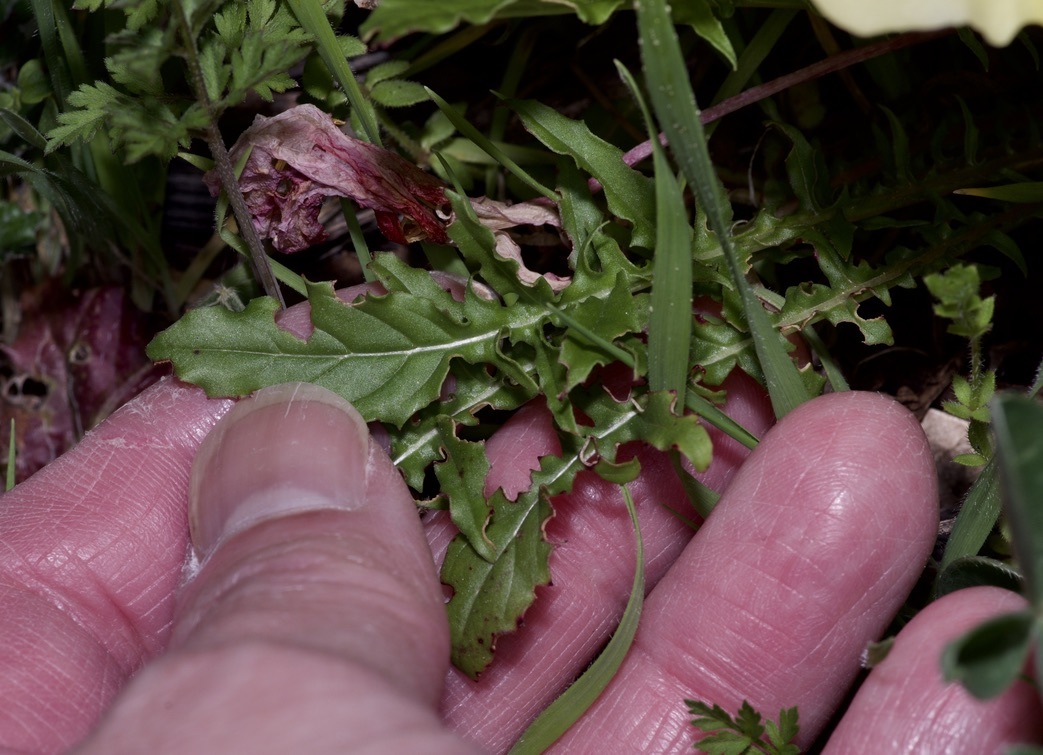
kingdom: Plantae
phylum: Tracheophyta
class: Magnoliopsida
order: Myrtales
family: Onagraceae
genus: Oenothera
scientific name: Oenothera triloba
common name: Sessile evening-primrose
